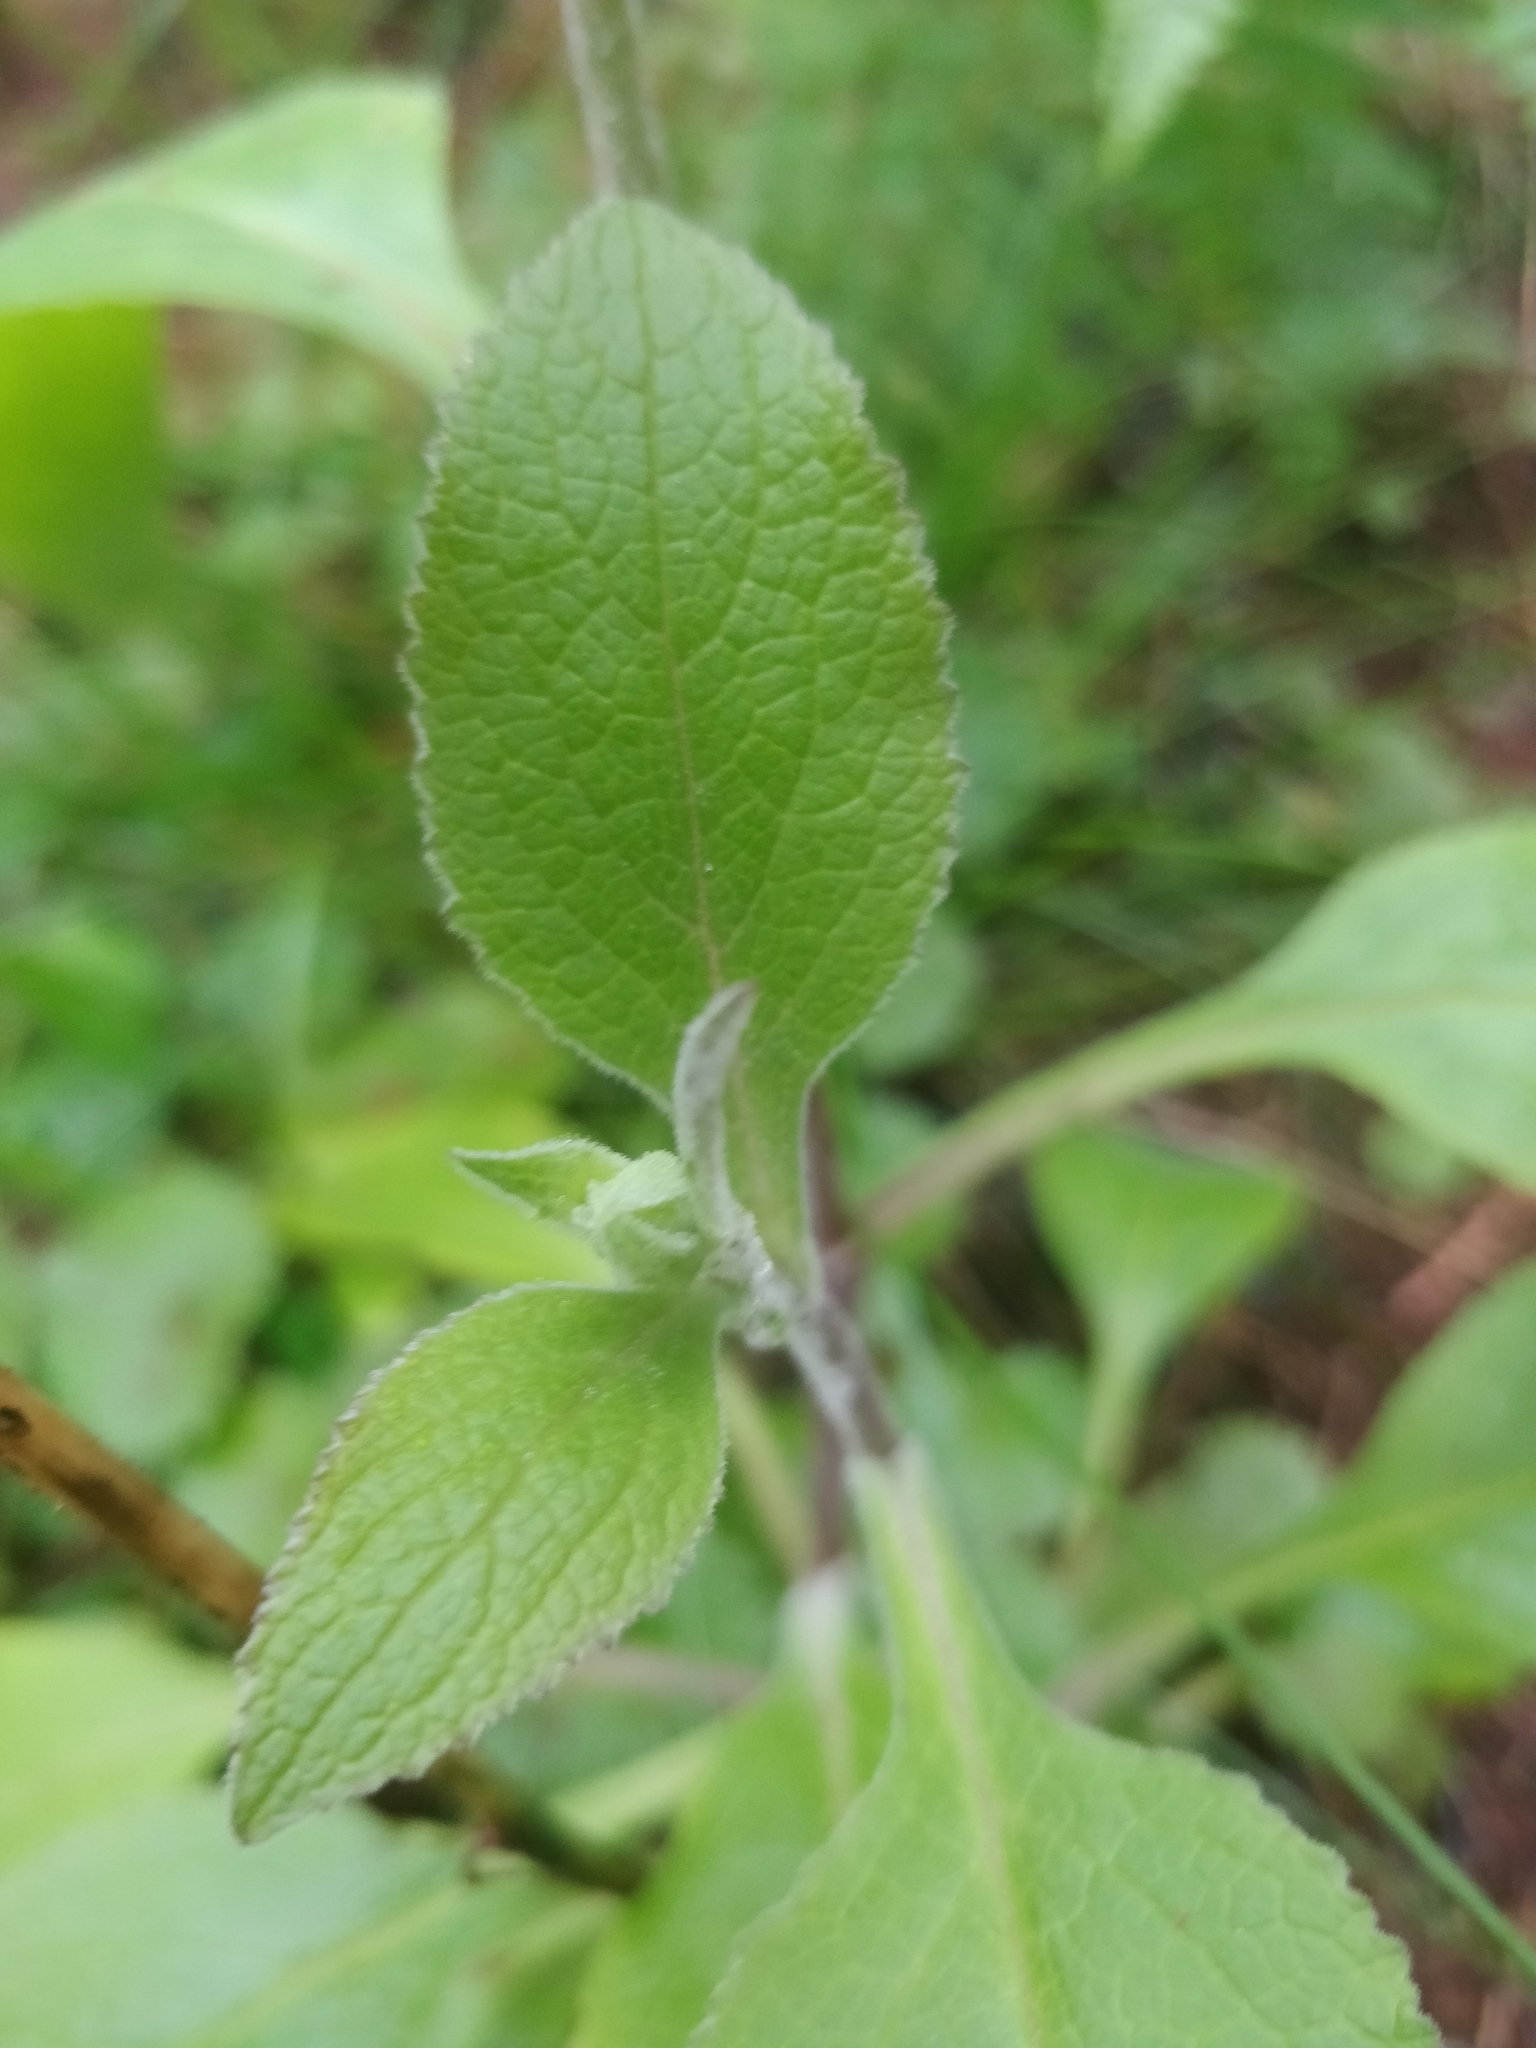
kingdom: Plantae
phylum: Tracheophyta
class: Magnoliopsida
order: Lamiales
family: Plantaginaceae
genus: Digitalis
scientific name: Digitalis purpurea
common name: Foxglove
